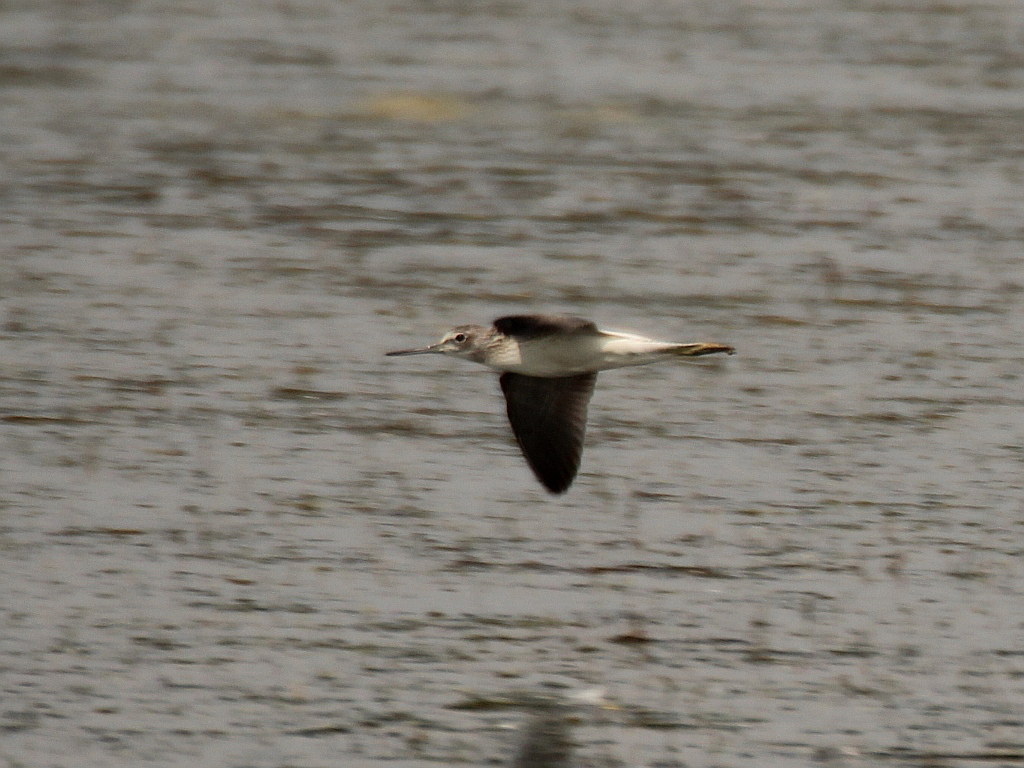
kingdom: Animalia
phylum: Chordata
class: Aves
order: Charadriiformes
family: Scolopacidae
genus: Tringa
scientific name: Tringa nebularia
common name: Common greenshank
